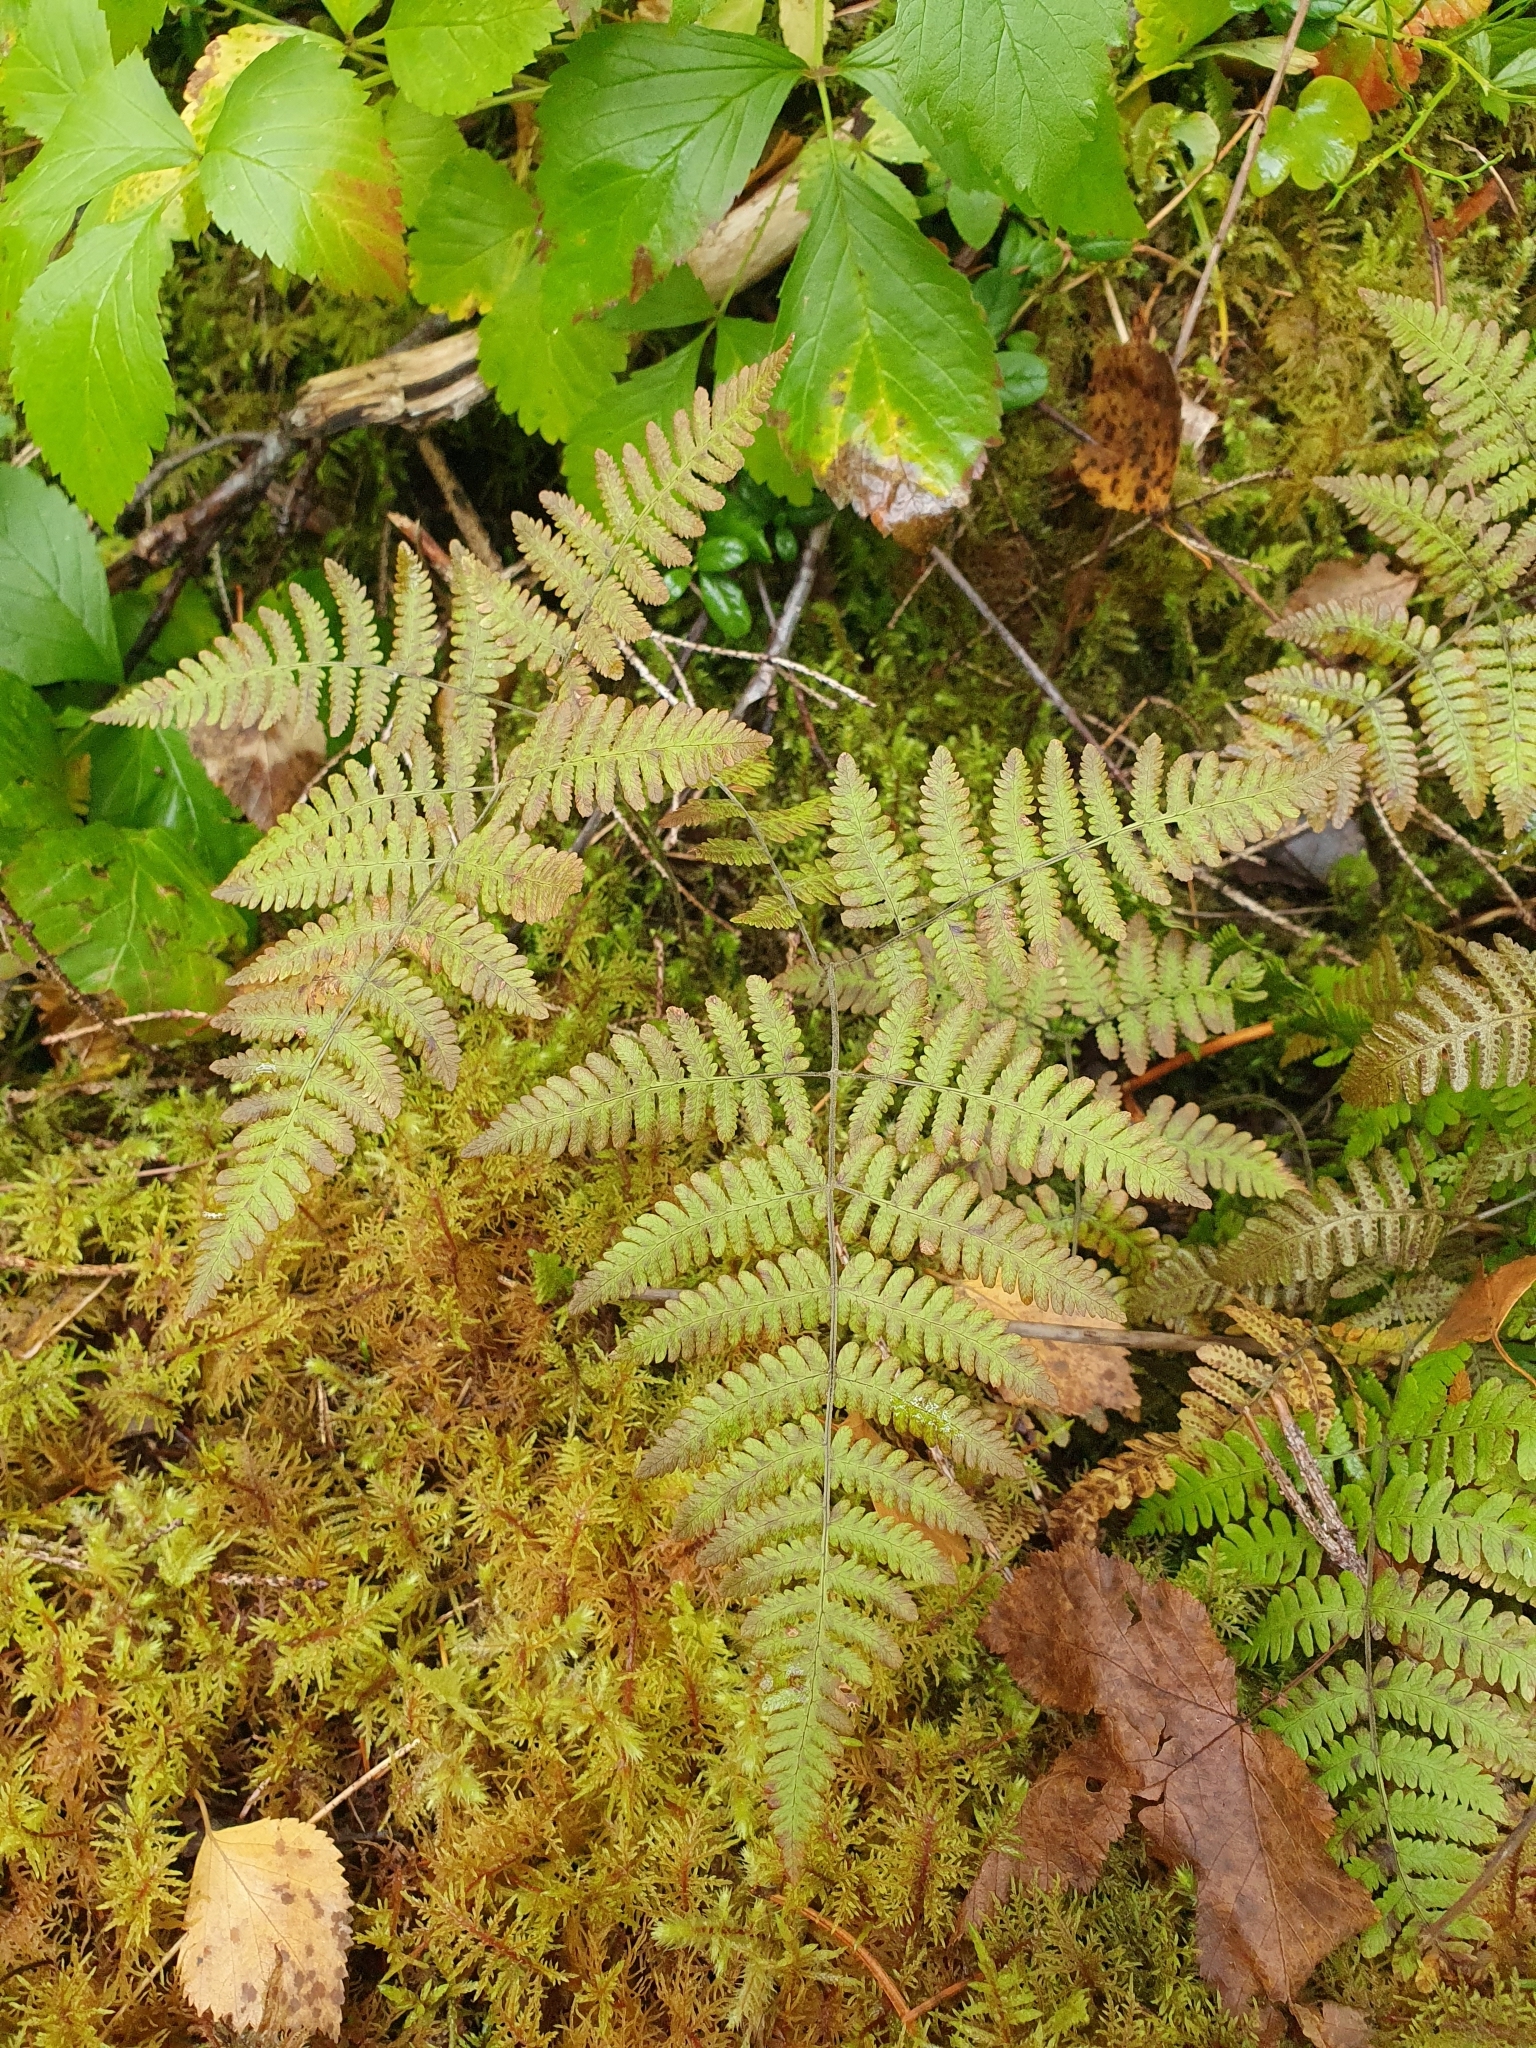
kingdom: Plantae
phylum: Tracheophyta
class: Polypodiopsida
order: Polypodiales
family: Cystopteridaceae
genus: Gymnocarpium
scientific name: Gymnocarpium robertianum
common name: Limestone fern
